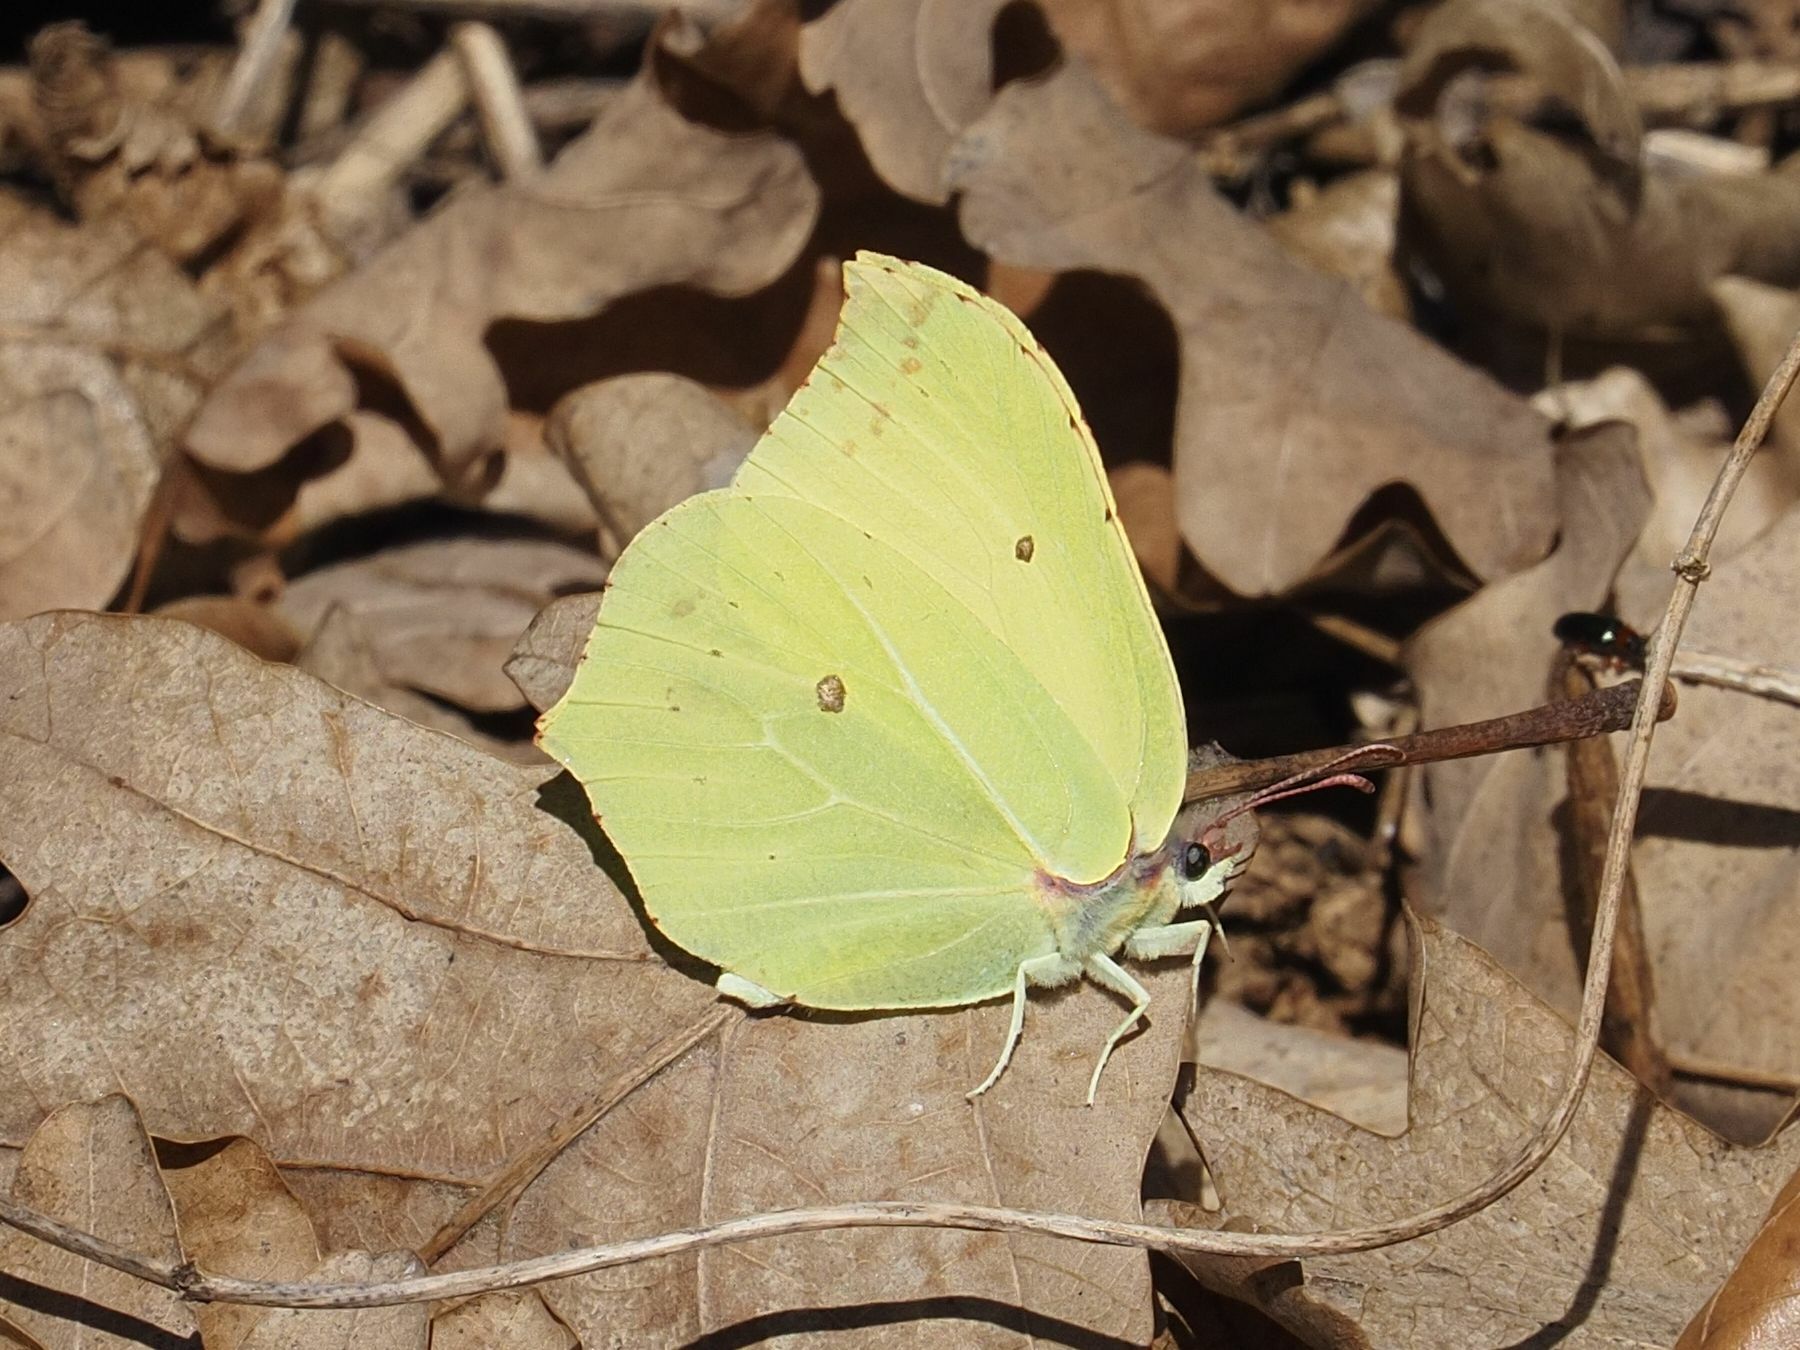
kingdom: Animalia
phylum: Arthropoda
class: Insecta
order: Lepidoptera
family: Pieridae
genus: Gonepteryx
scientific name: Gonepteryx rhamni
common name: Brimstone
